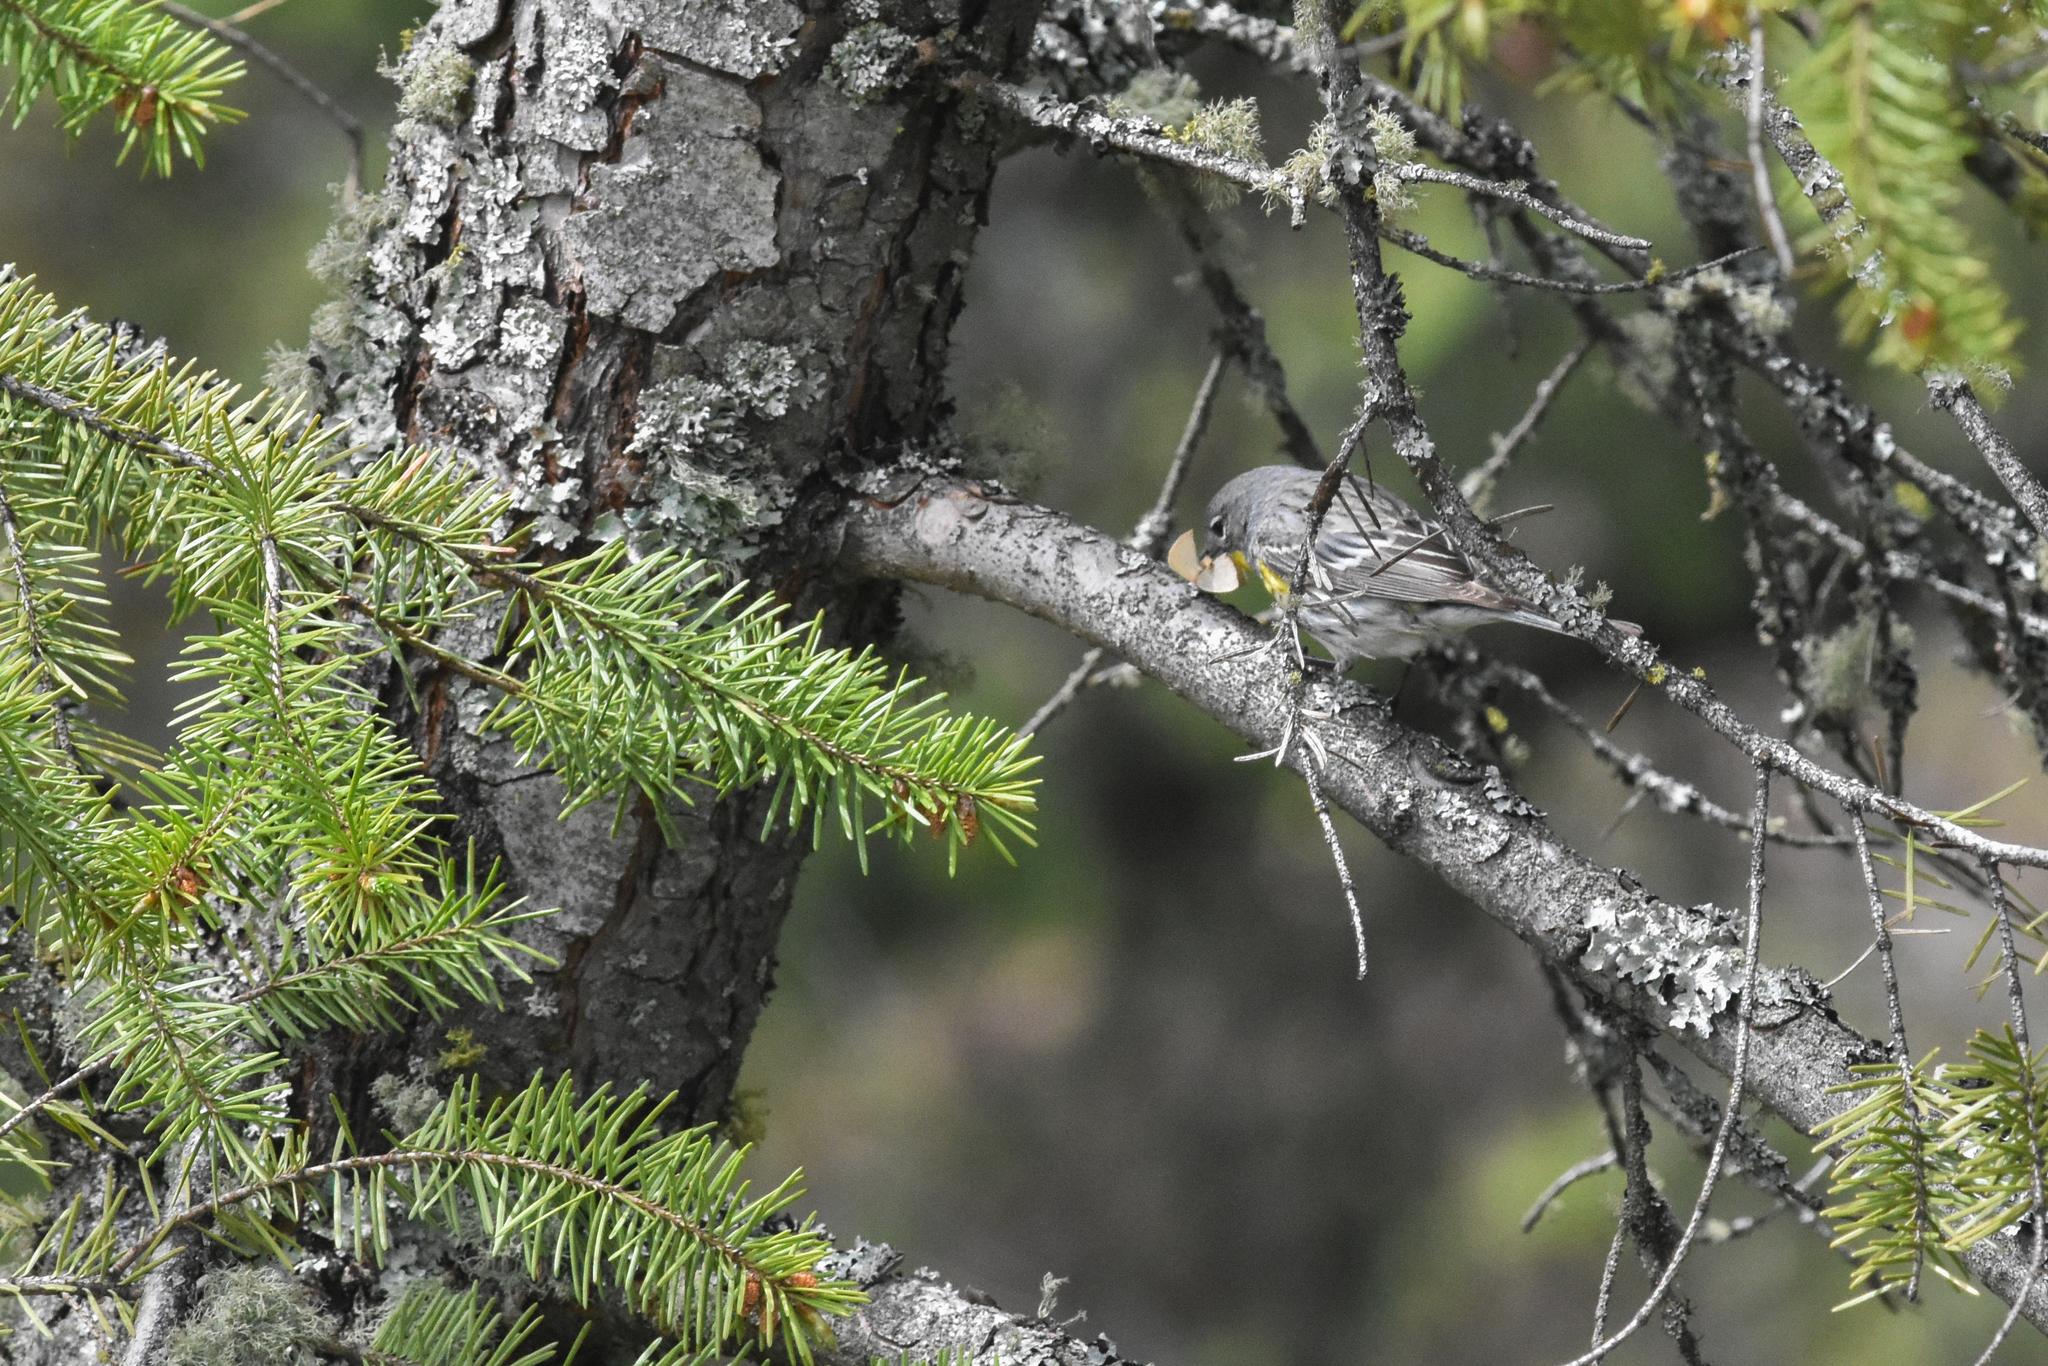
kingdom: Animalia
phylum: Chordata
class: Aves
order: Passeriformes
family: Parulidae
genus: Setophaga
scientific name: Setophaga coronata
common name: Myrtle warbler
